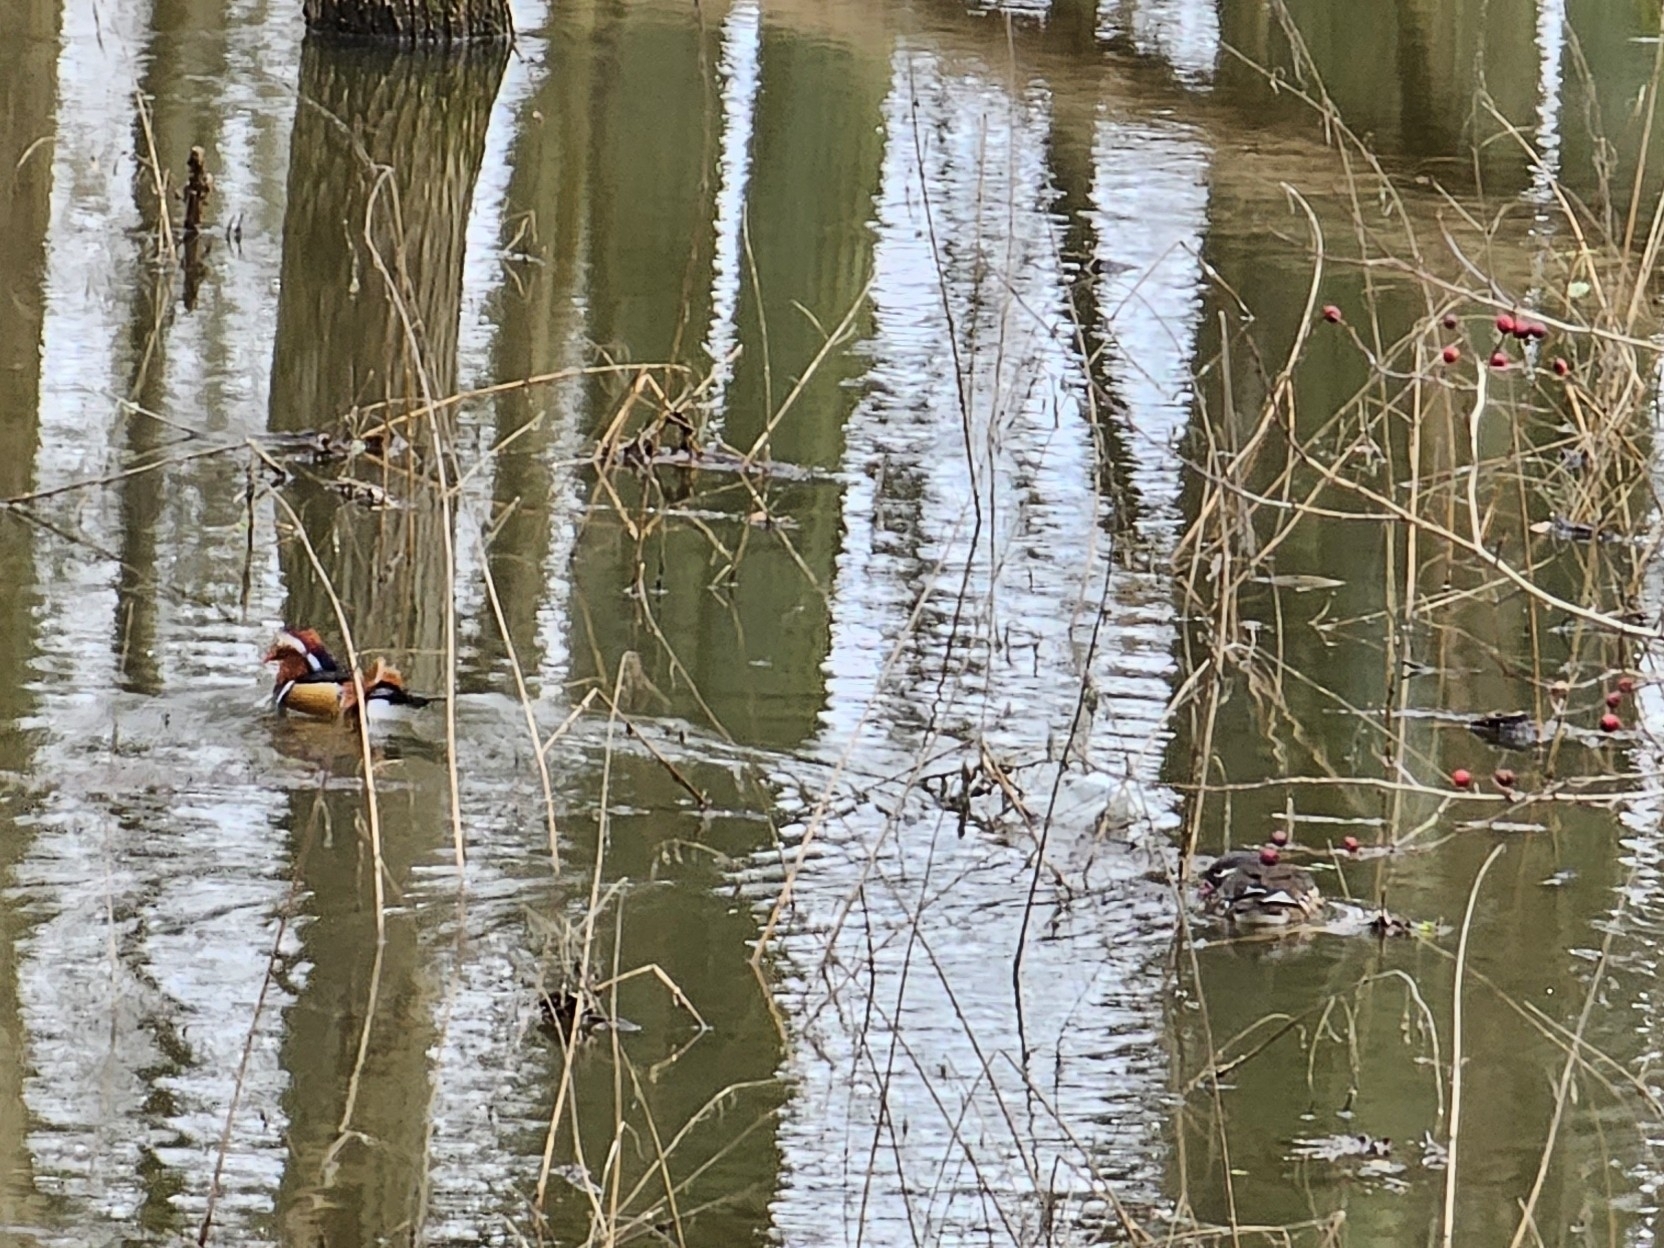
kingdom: Animalia
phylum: Chordata
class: Aves
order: Anseriformes
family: Anatidae
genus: Aix
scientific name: Aix galericulata
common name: Mandarin duck
